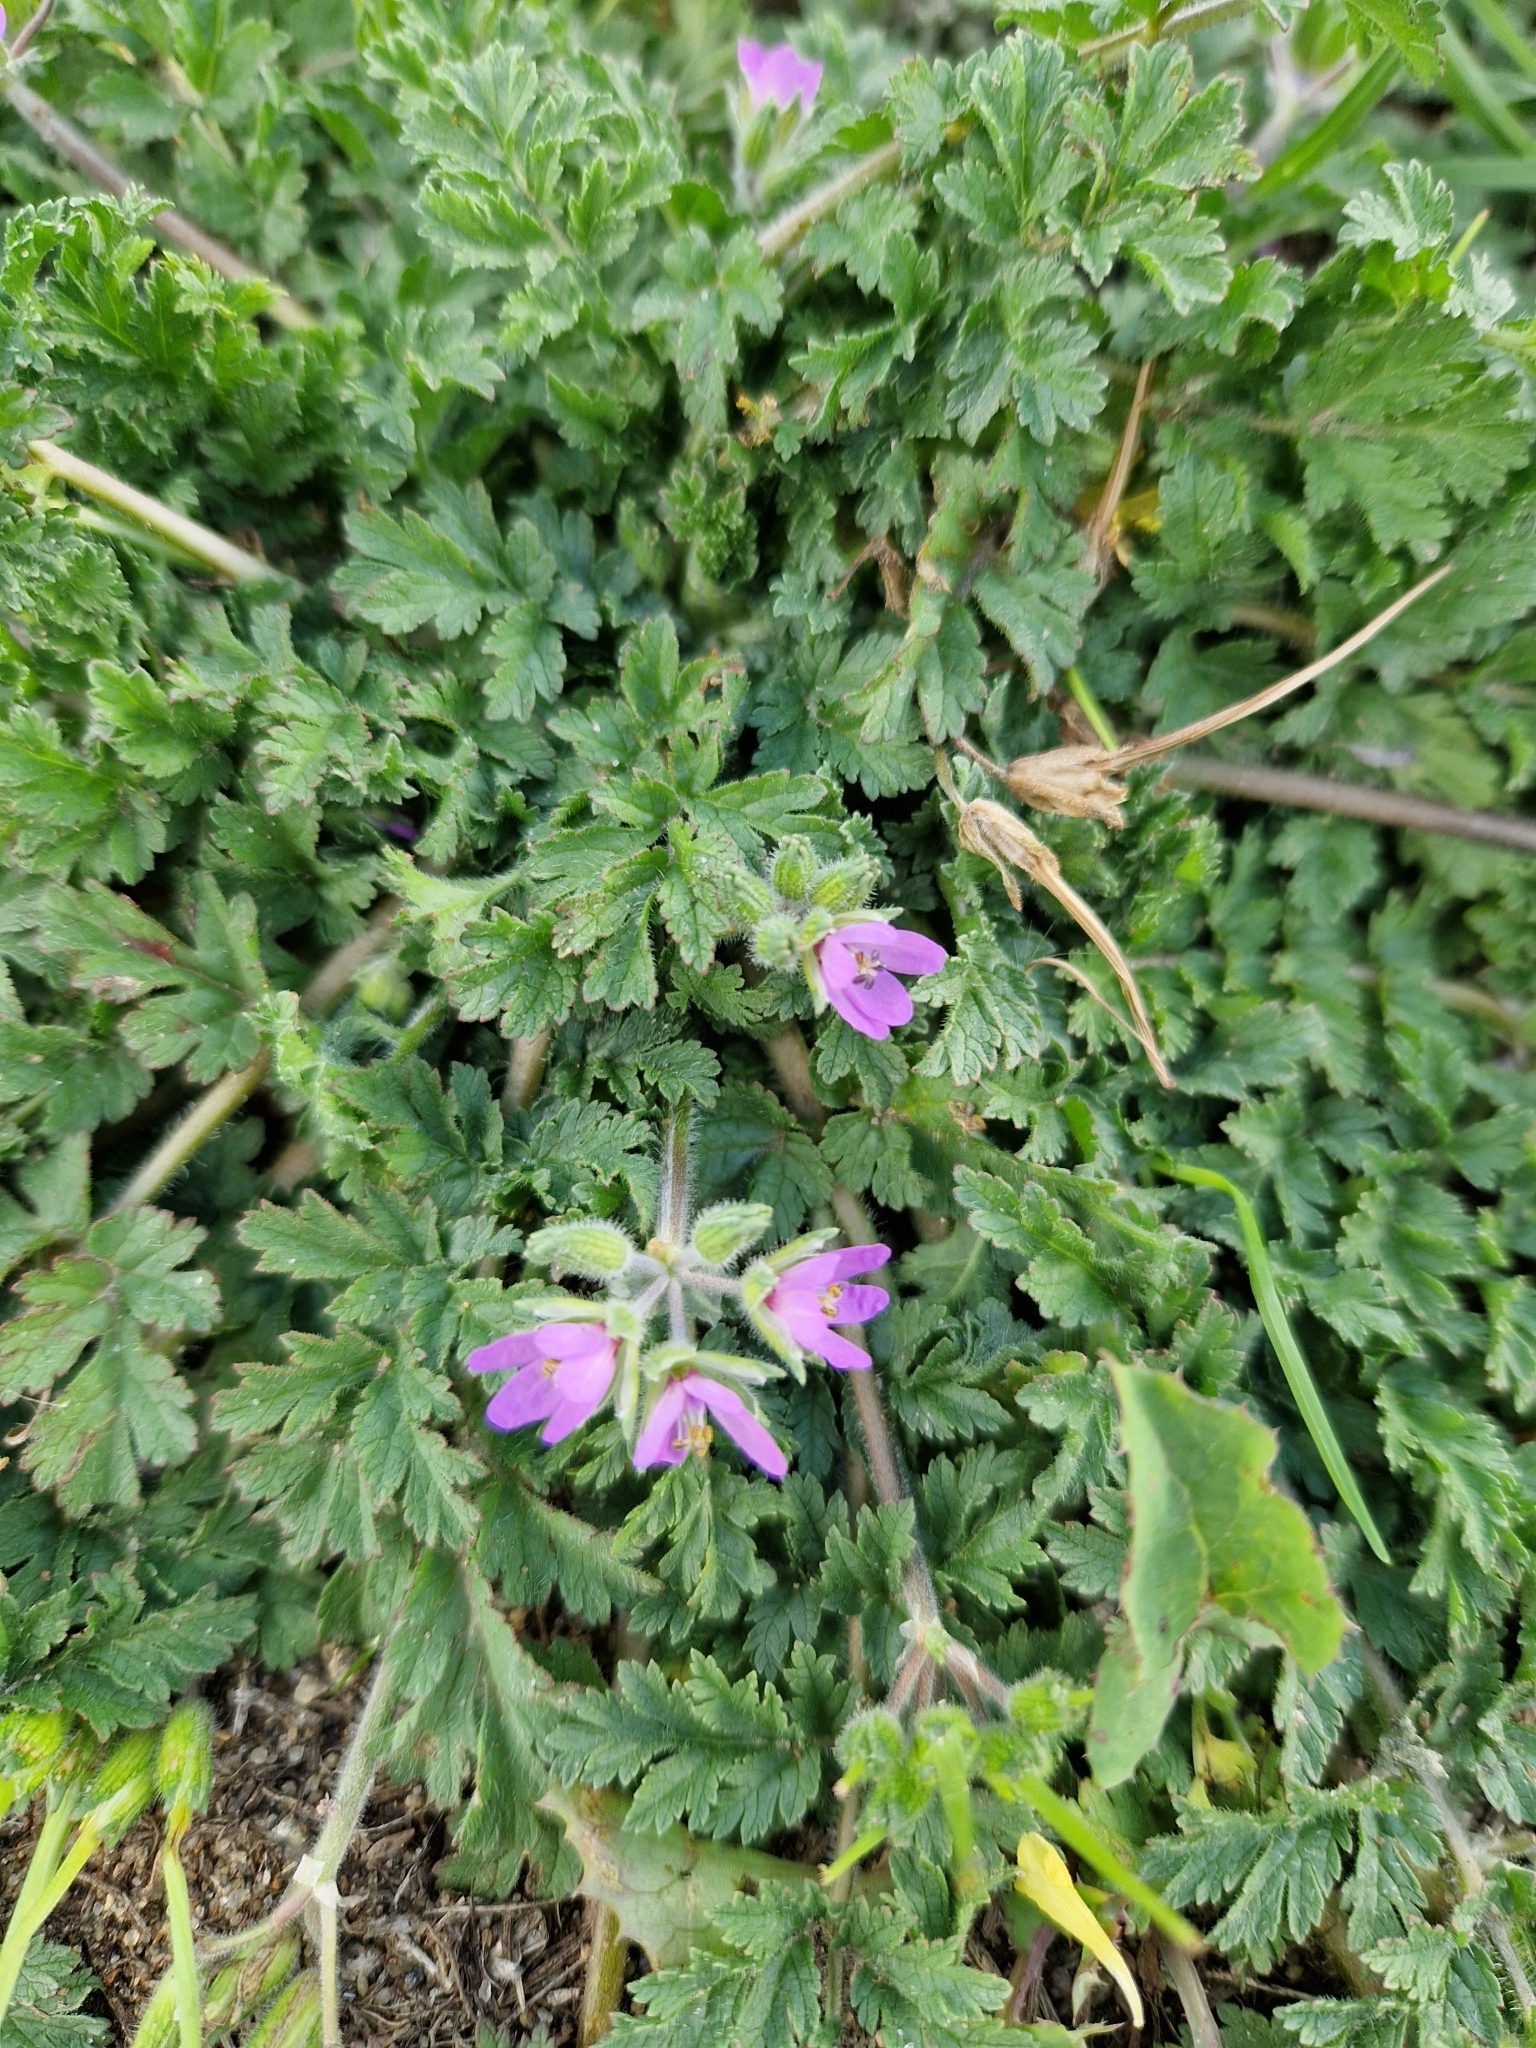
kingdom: Plantae
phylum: Tracheophyta
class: Magnoliopsida
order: Geraniales
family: Geraniaceae
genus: Erodium
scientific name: Erodium moschatum
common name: Musk stork's-bill
